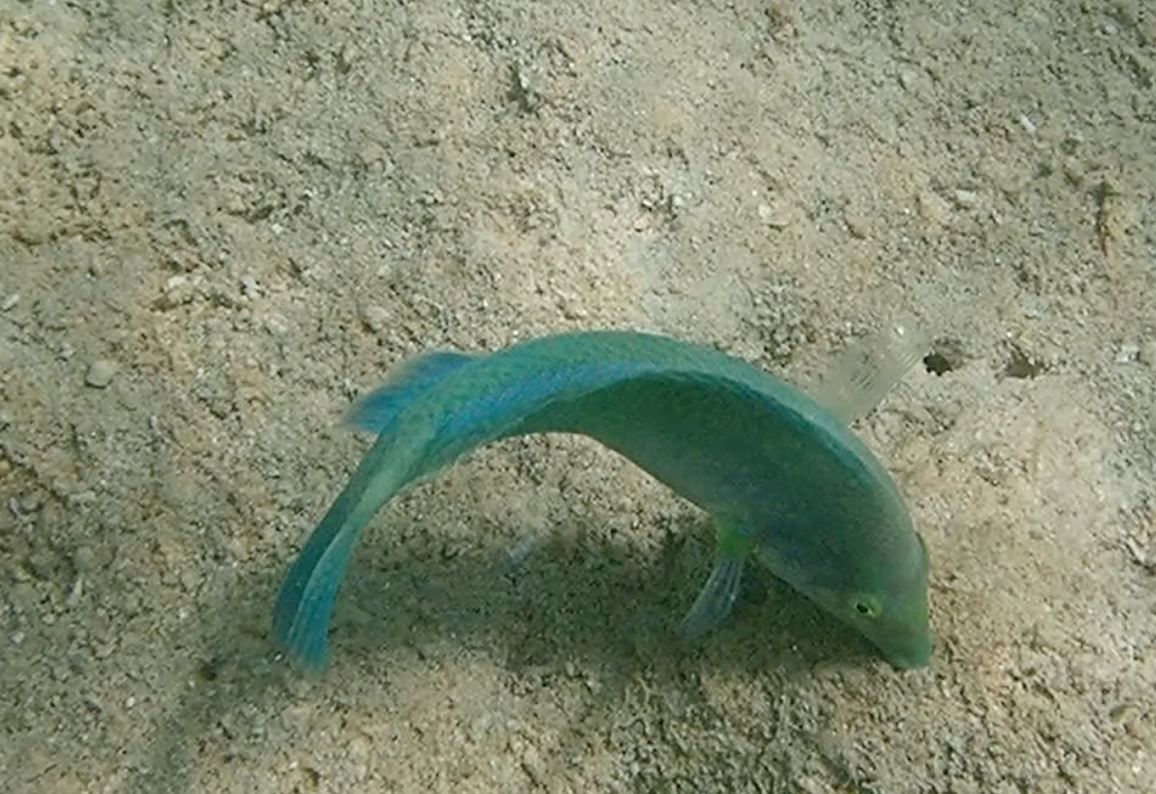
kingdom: Animalia
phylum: Chordata
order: Perciformes
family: Labridae
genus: Halichoeres
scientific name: Halichoeres chloropterus
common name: Pastel-green wrasse
